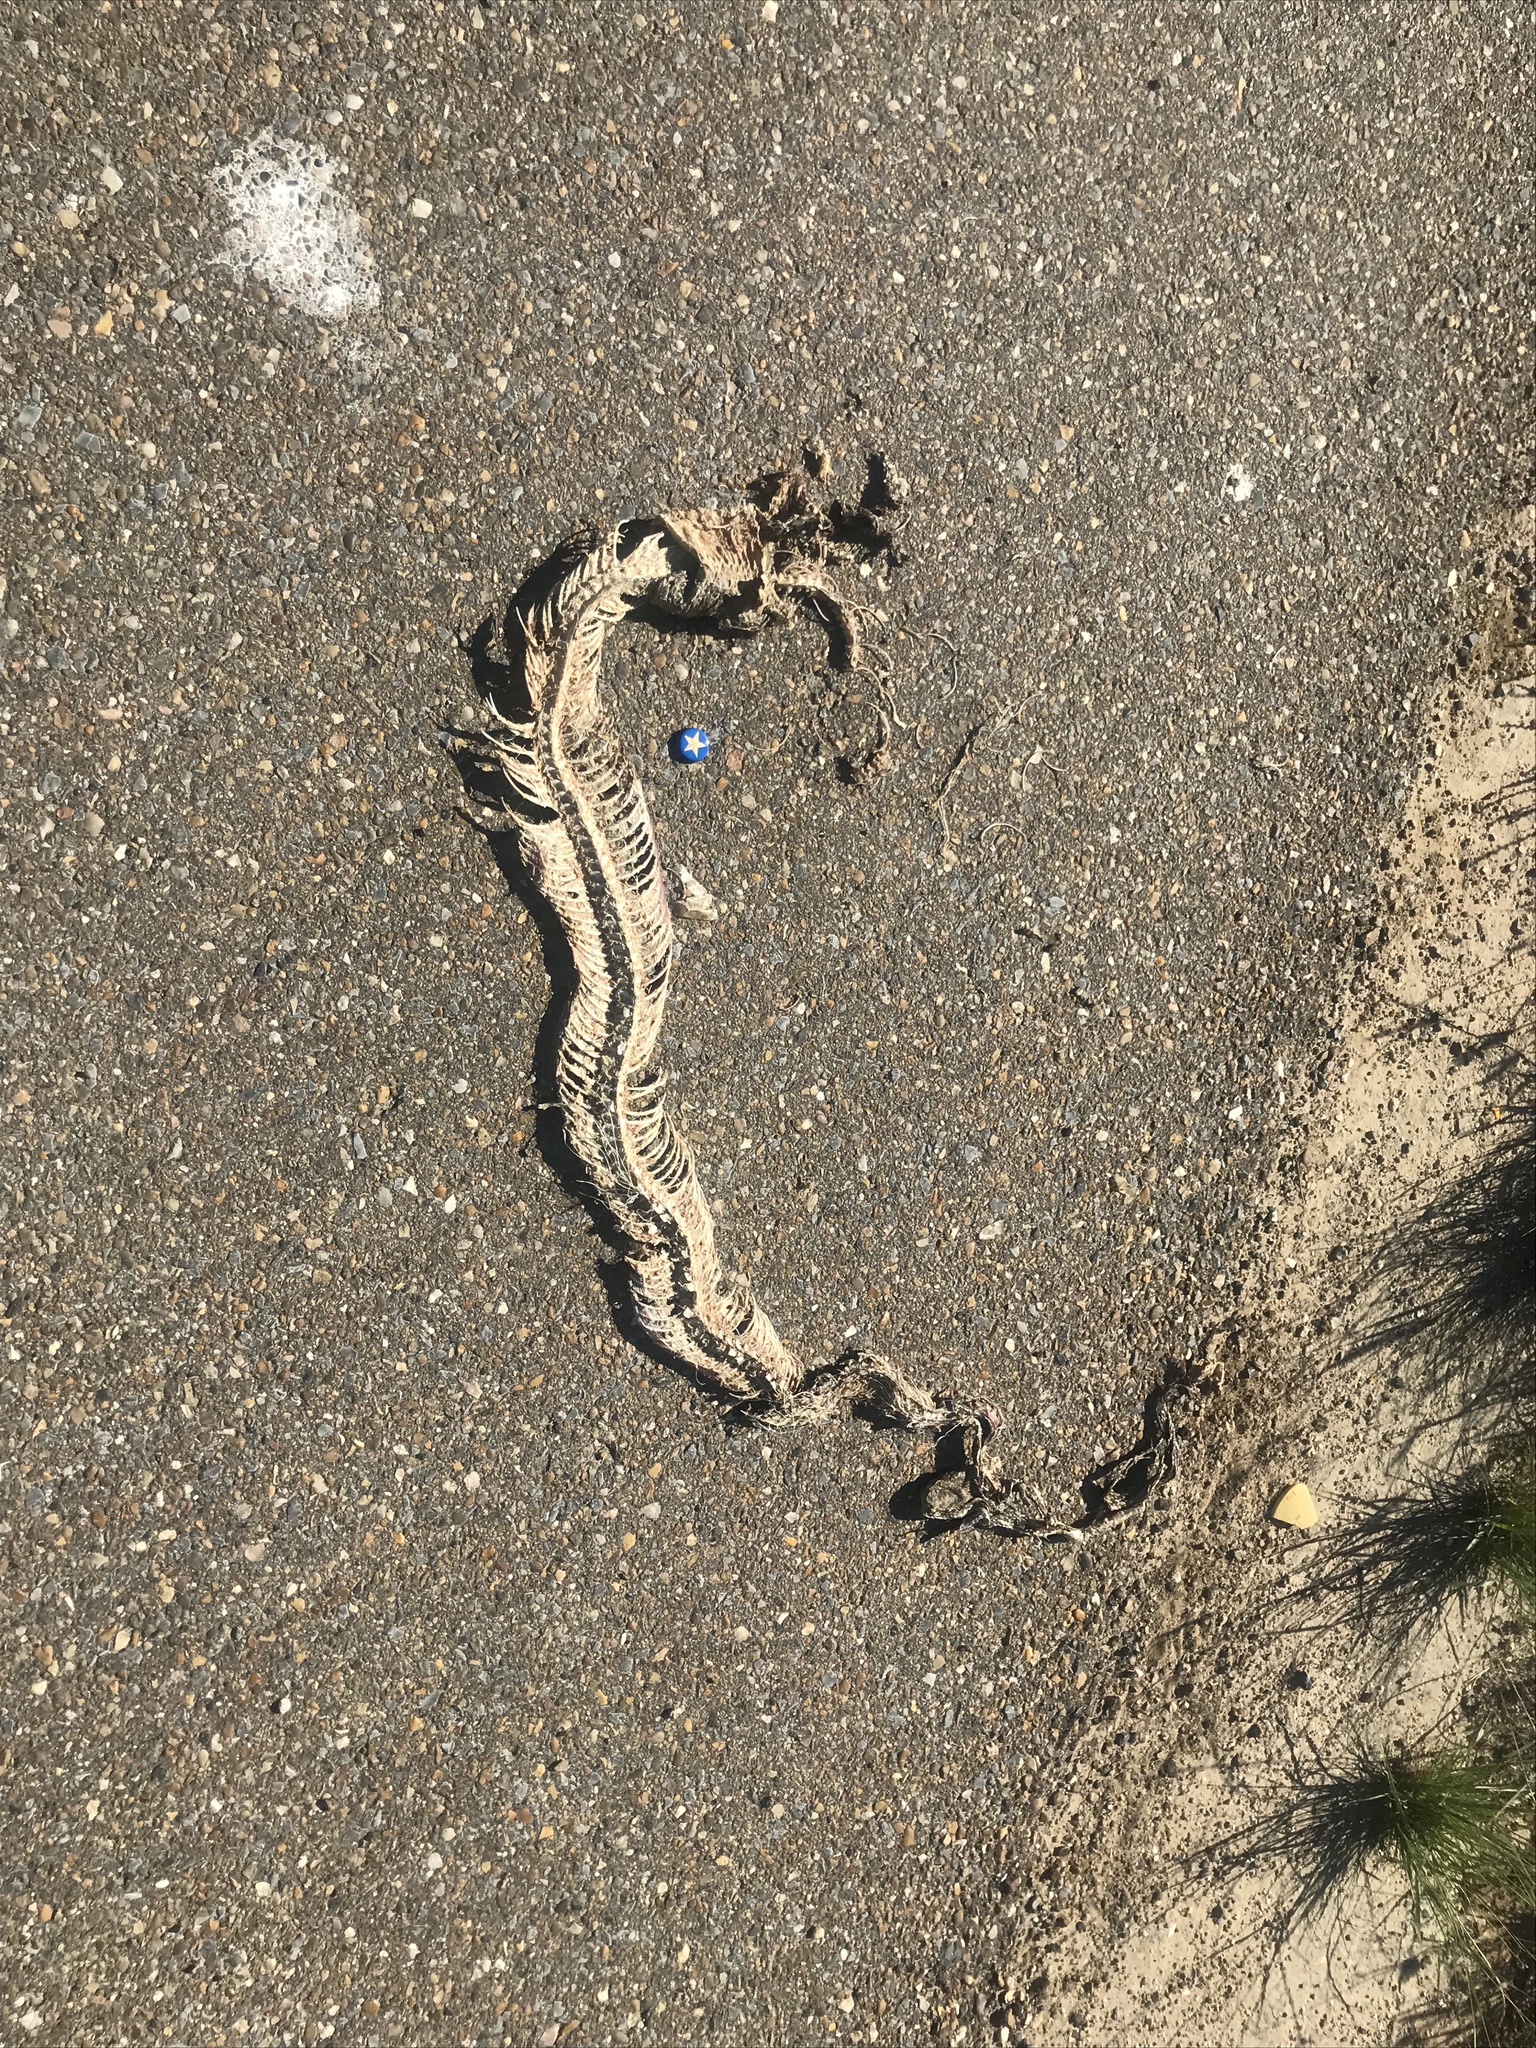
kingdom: Animalia
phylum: Chordata
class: Squamata
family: Viperidae
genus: Crotalus
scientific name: Crotalus atrox
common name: Western diamond-backed rattlesnake
